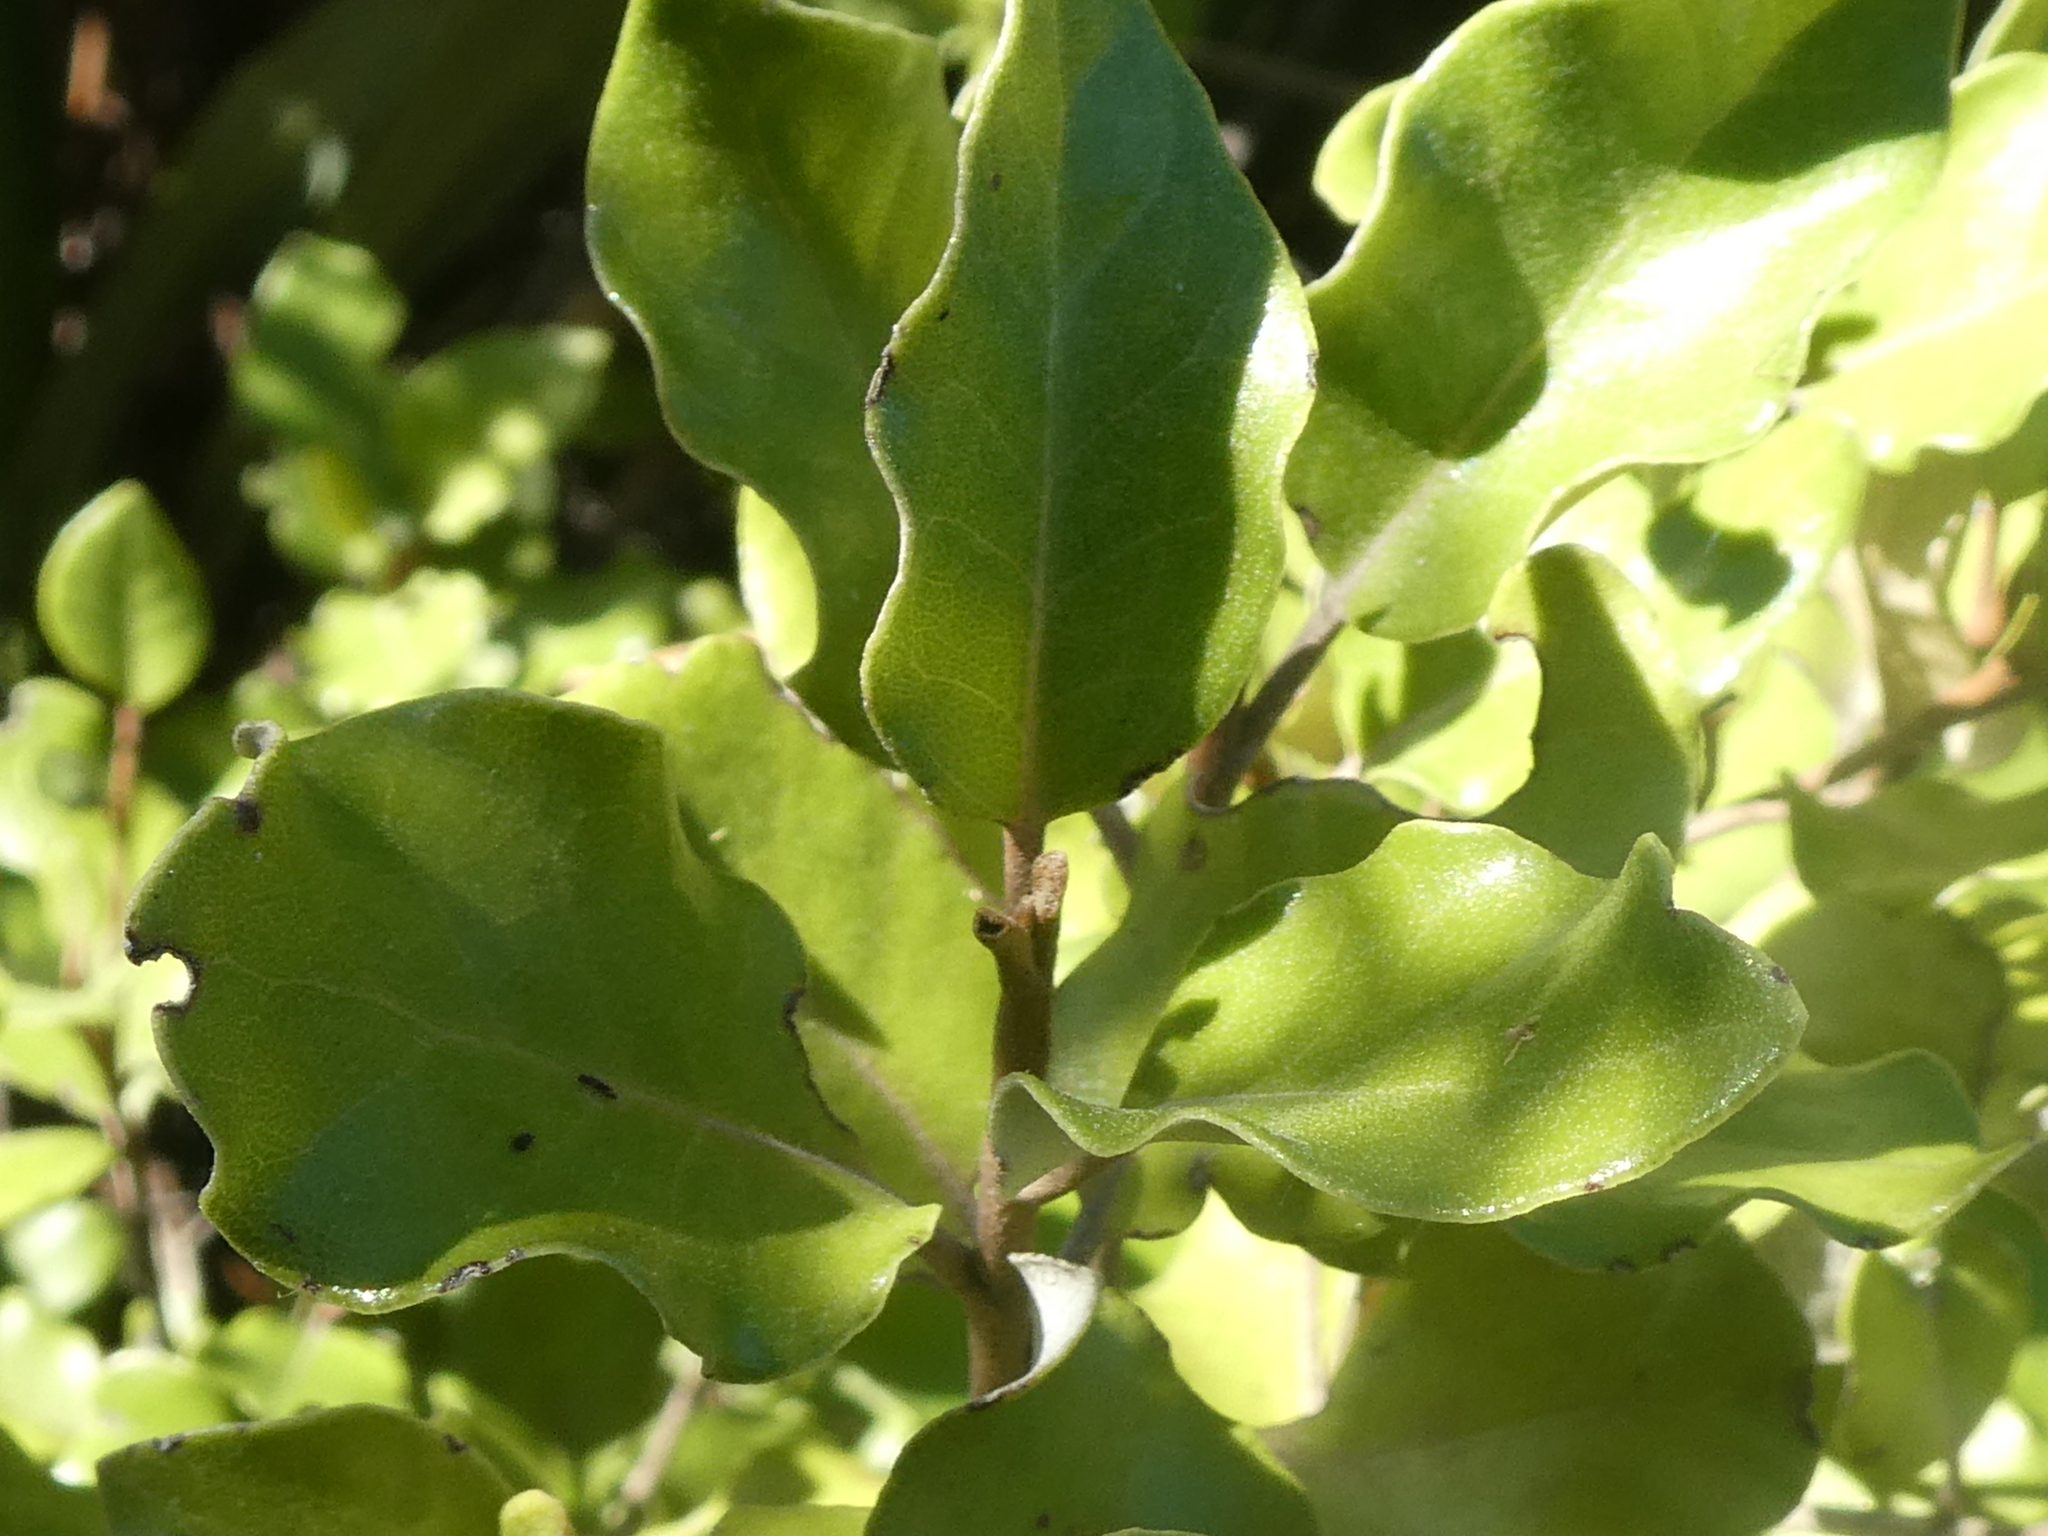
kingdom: Plantae
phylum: Tracheophyta
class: Magnoliopsida
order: Asterales
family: Asteraceae
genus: Olearia
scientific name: Olearia paniculata
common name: Akiraho
